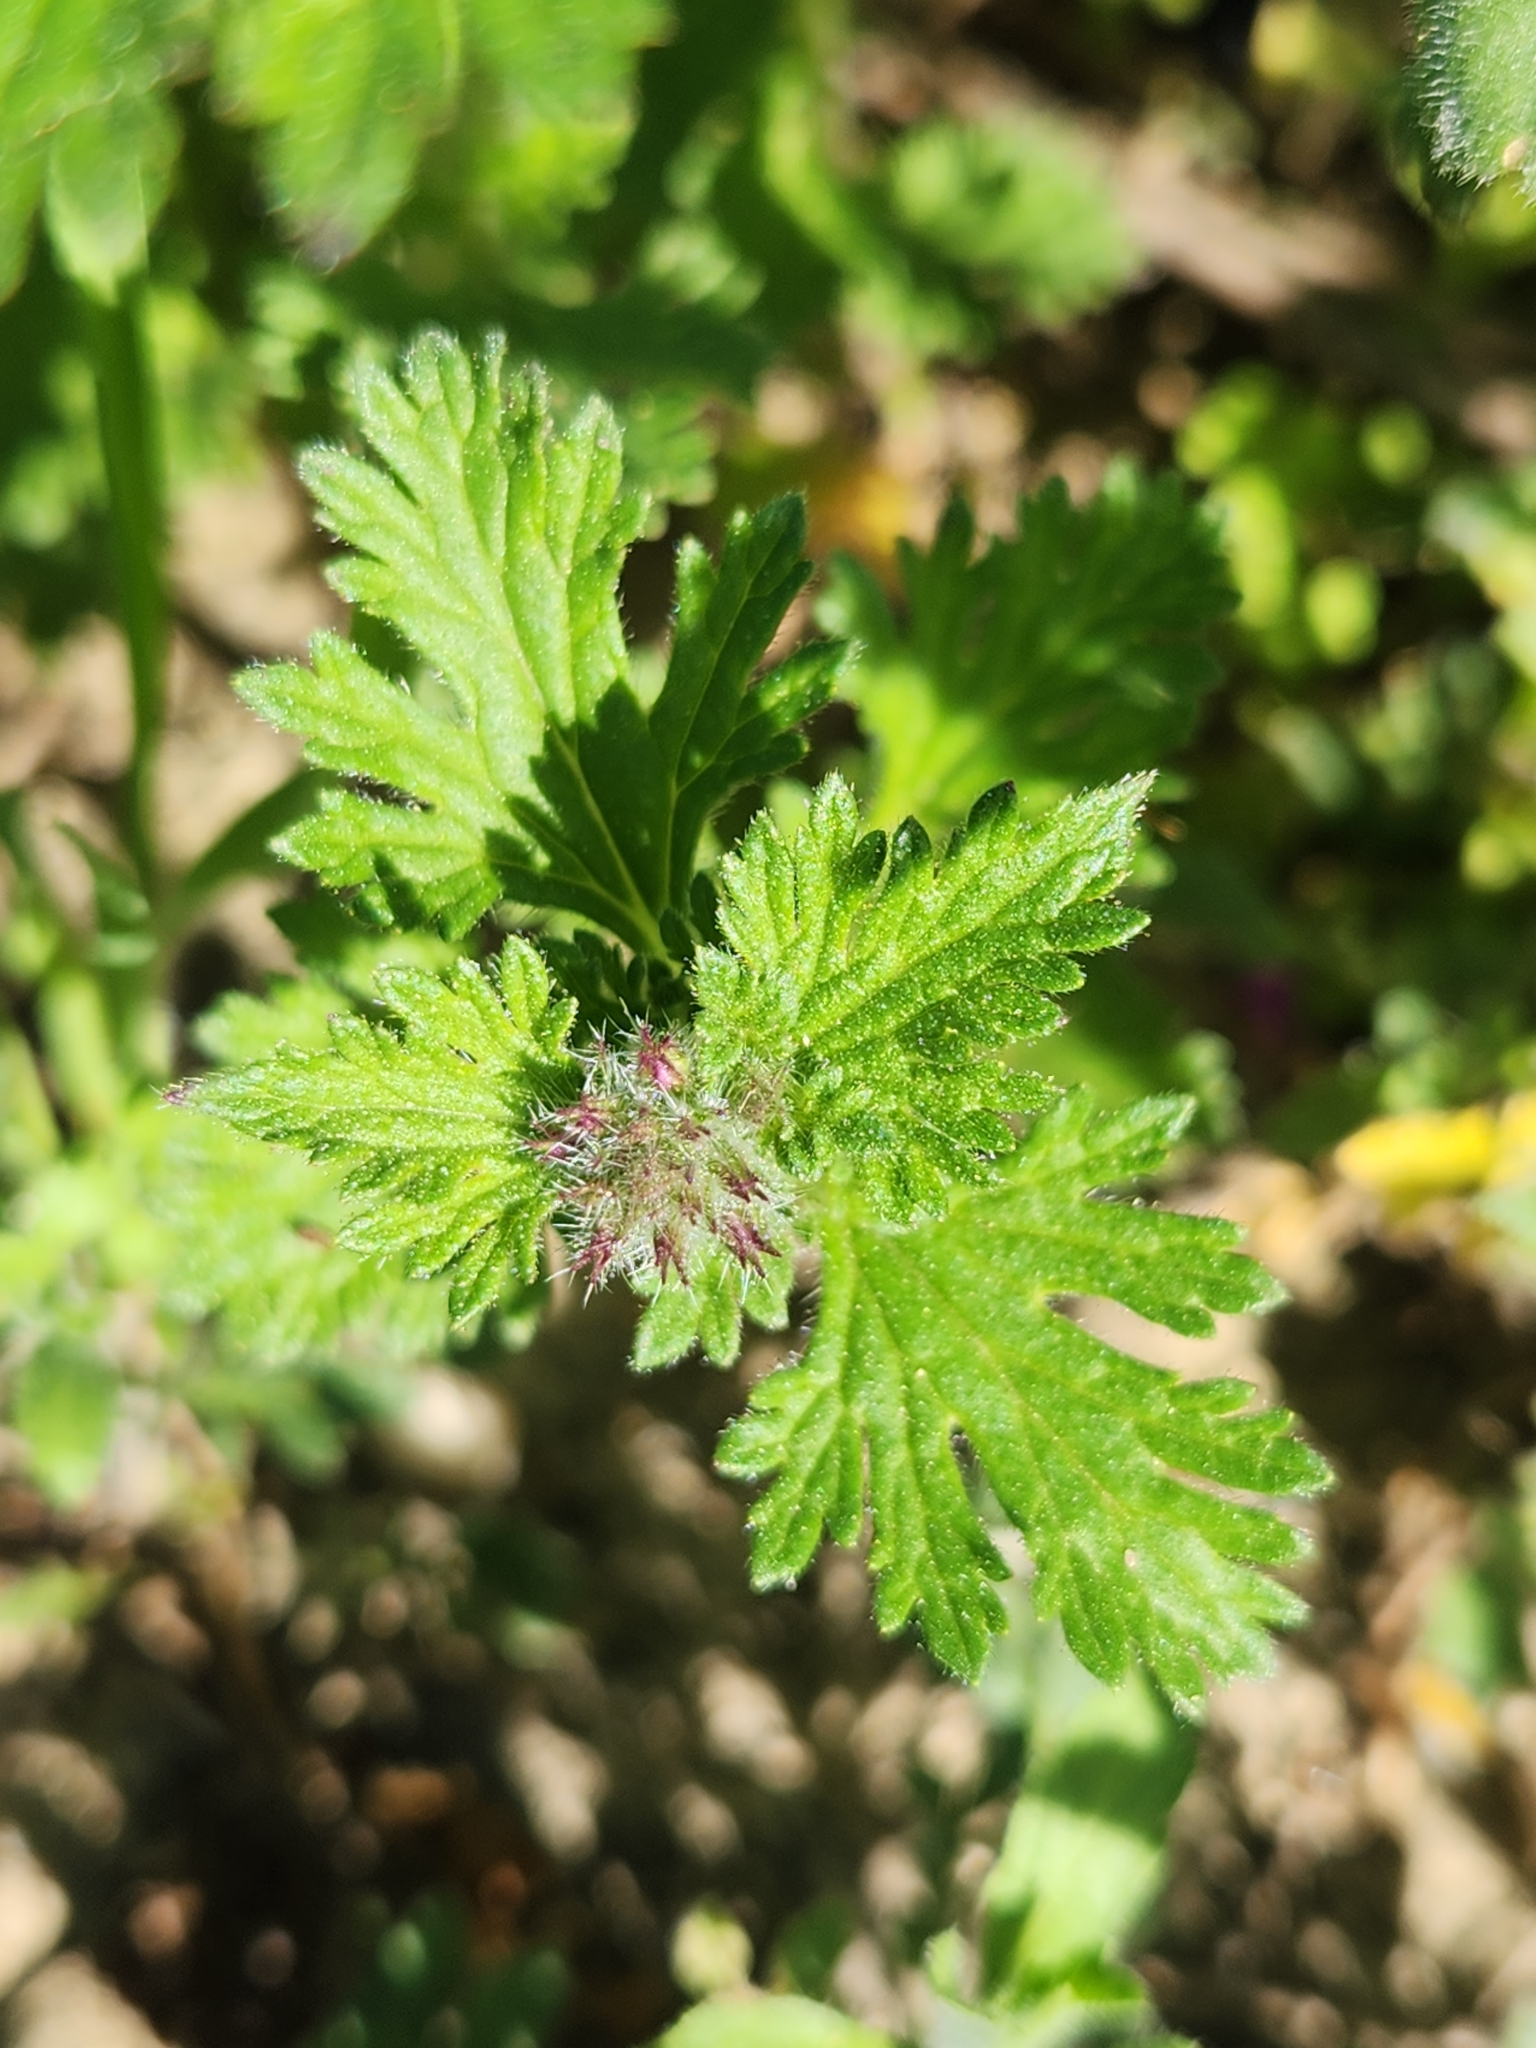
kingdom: Plantae
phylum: Tracheophyta
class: Magnoliopsida
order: Lamiales
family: Verbenaceae
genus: Verbena
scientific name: Verbena pumila
